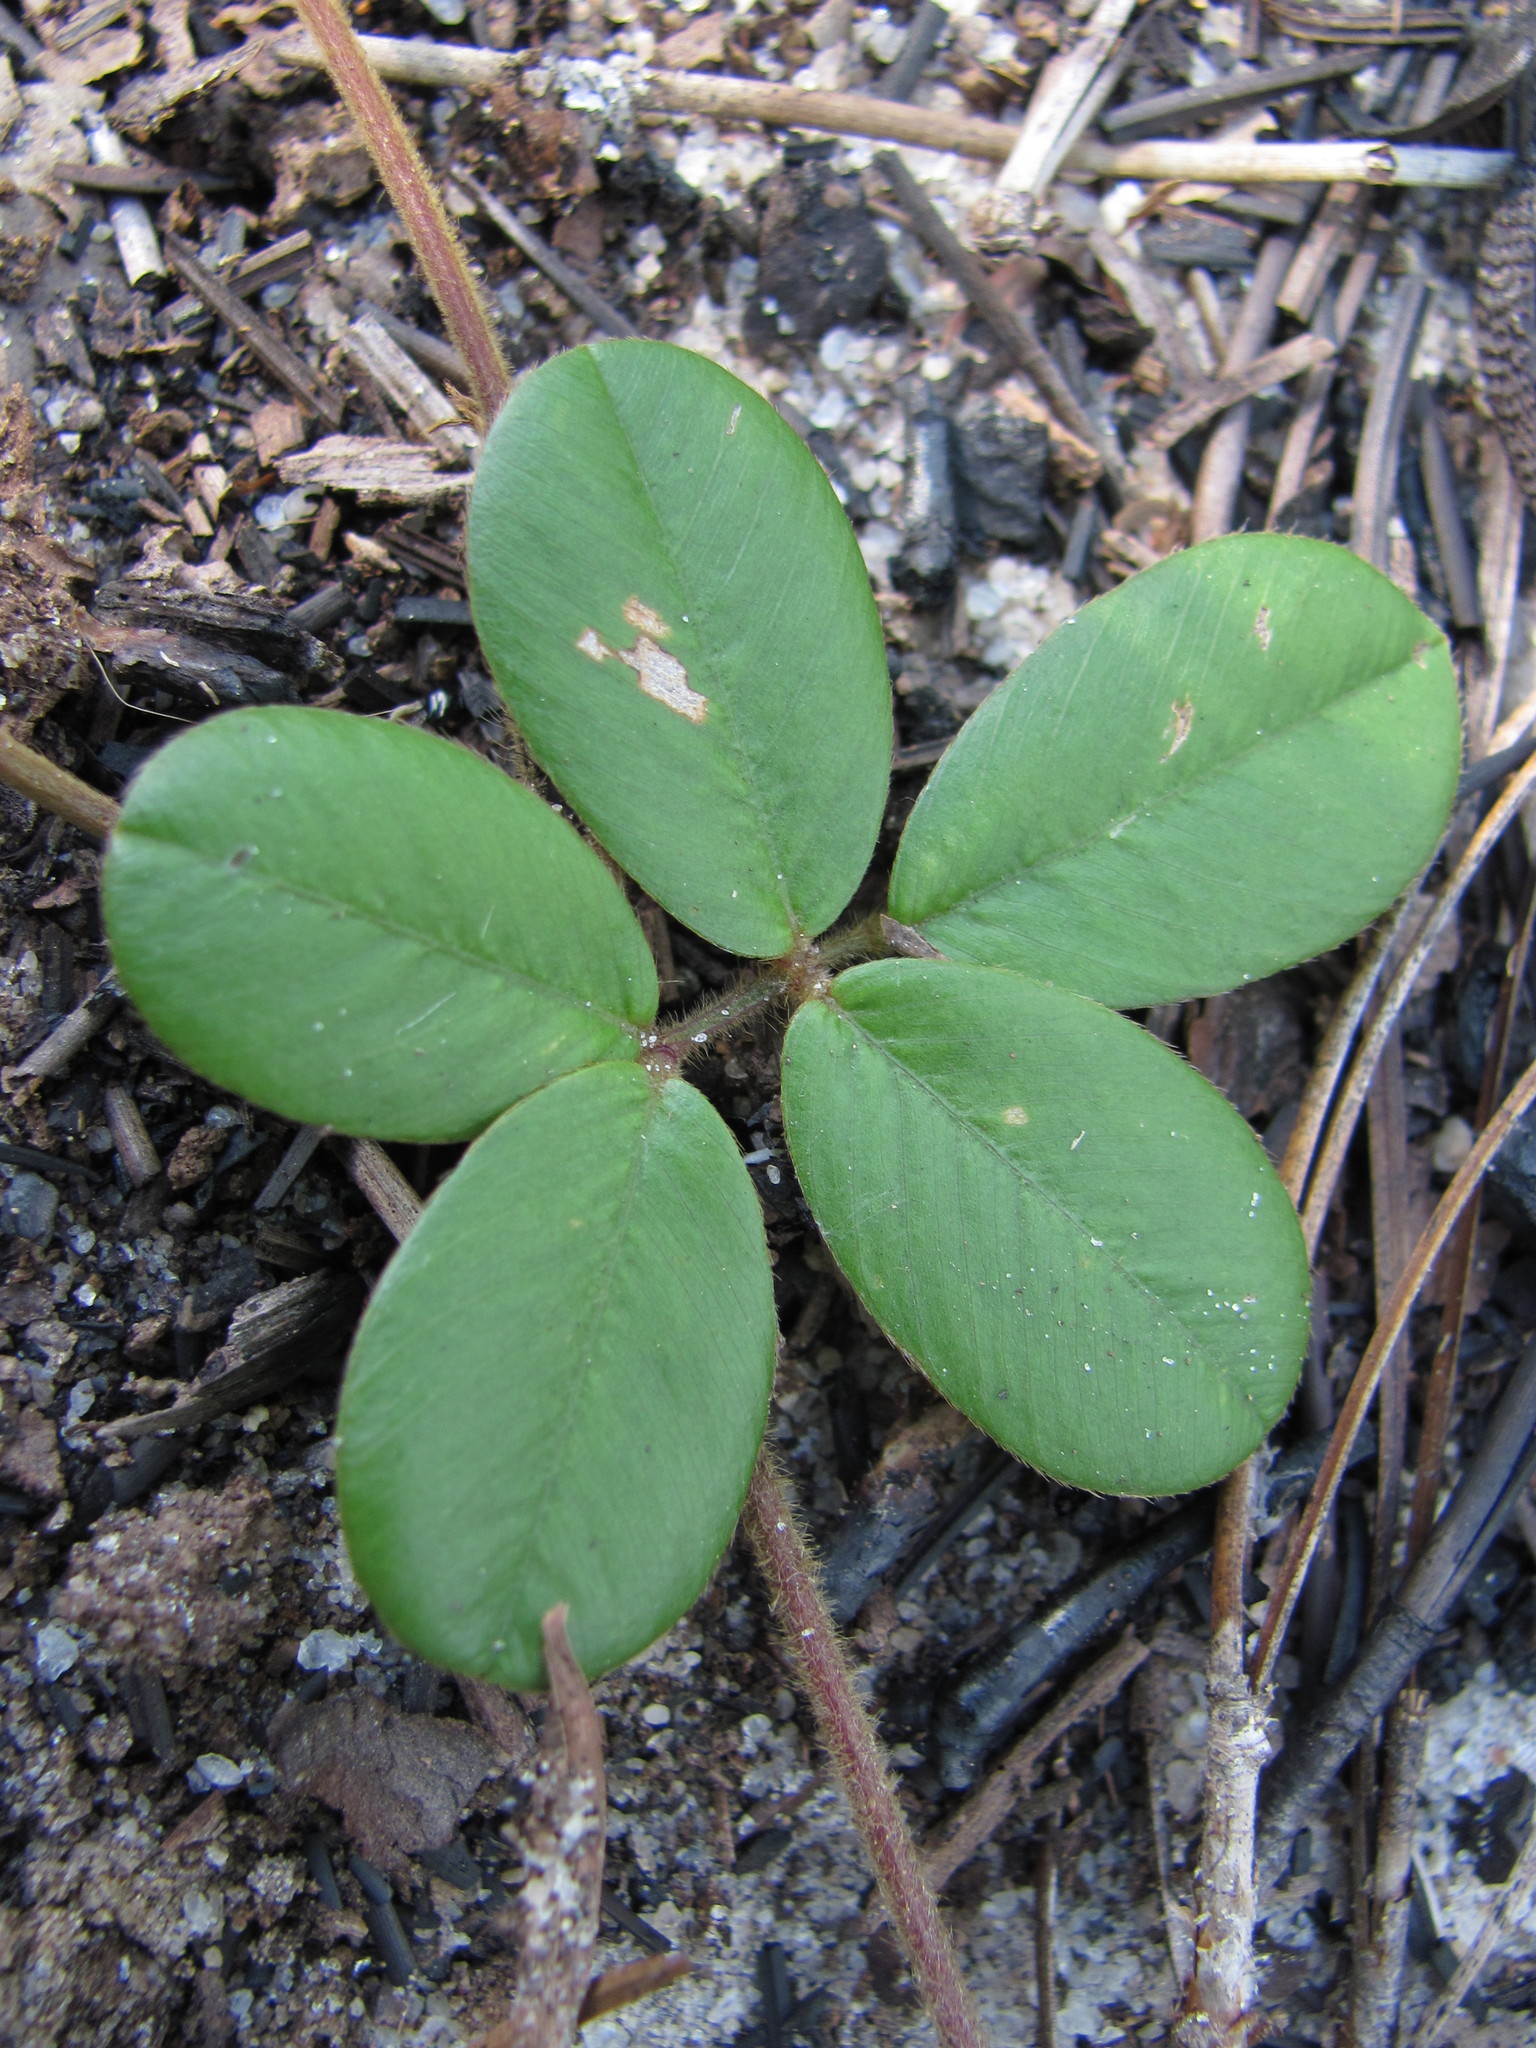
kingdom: Plantae
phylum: Tracheophyta
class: Magnoliopsida
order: Fabales
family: Fabaceae
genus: Tephrosia
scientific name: Tephrosia chrysophylla
